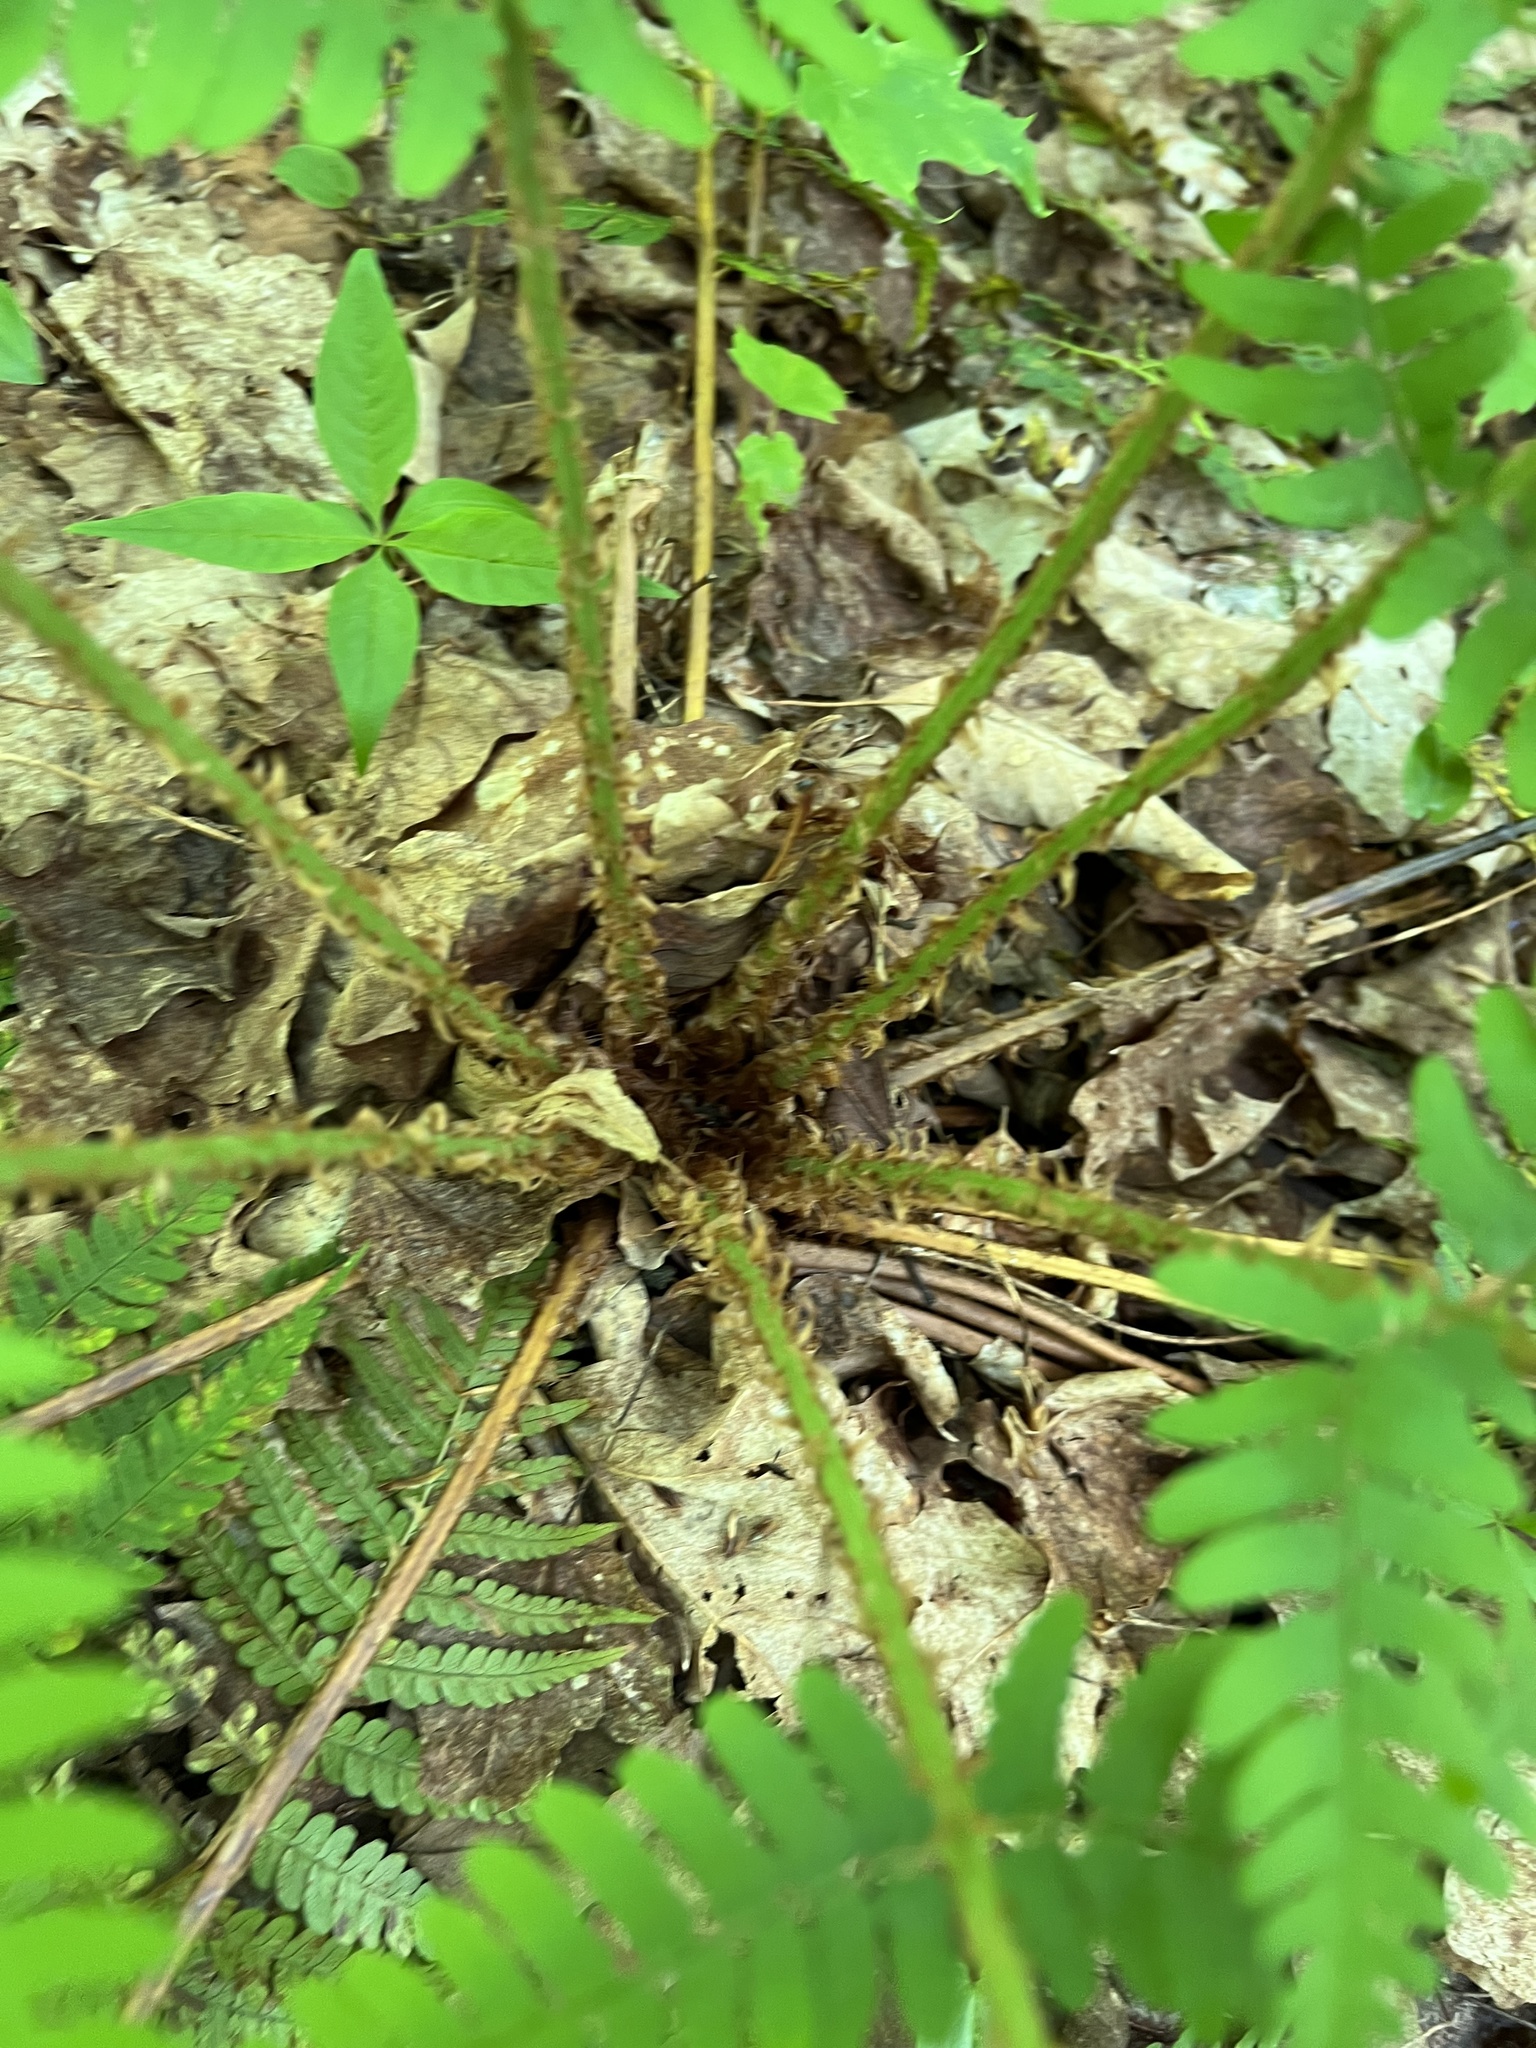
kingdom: Plantae
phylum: Tracheophyta
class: Polypodiopsida
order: Polypodiales
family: Dryopteridaceae
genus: Dryopteris
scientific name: Dryopteris marginalis
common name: Marginal wood fern
